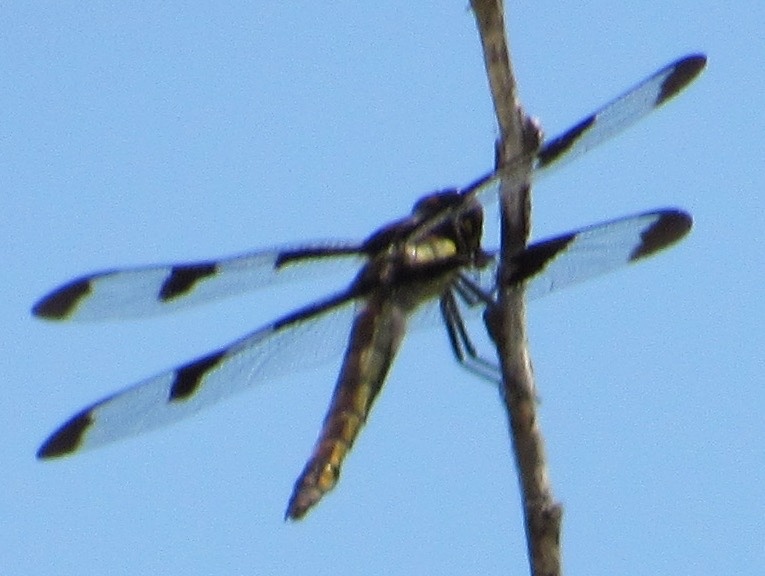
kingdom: Animalia
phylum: Arthropoda
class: Insecta
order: Odonata
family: Libellulidae
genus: Libellula
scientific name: Libellula pulchella
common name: Twelve-spotted skimmer
